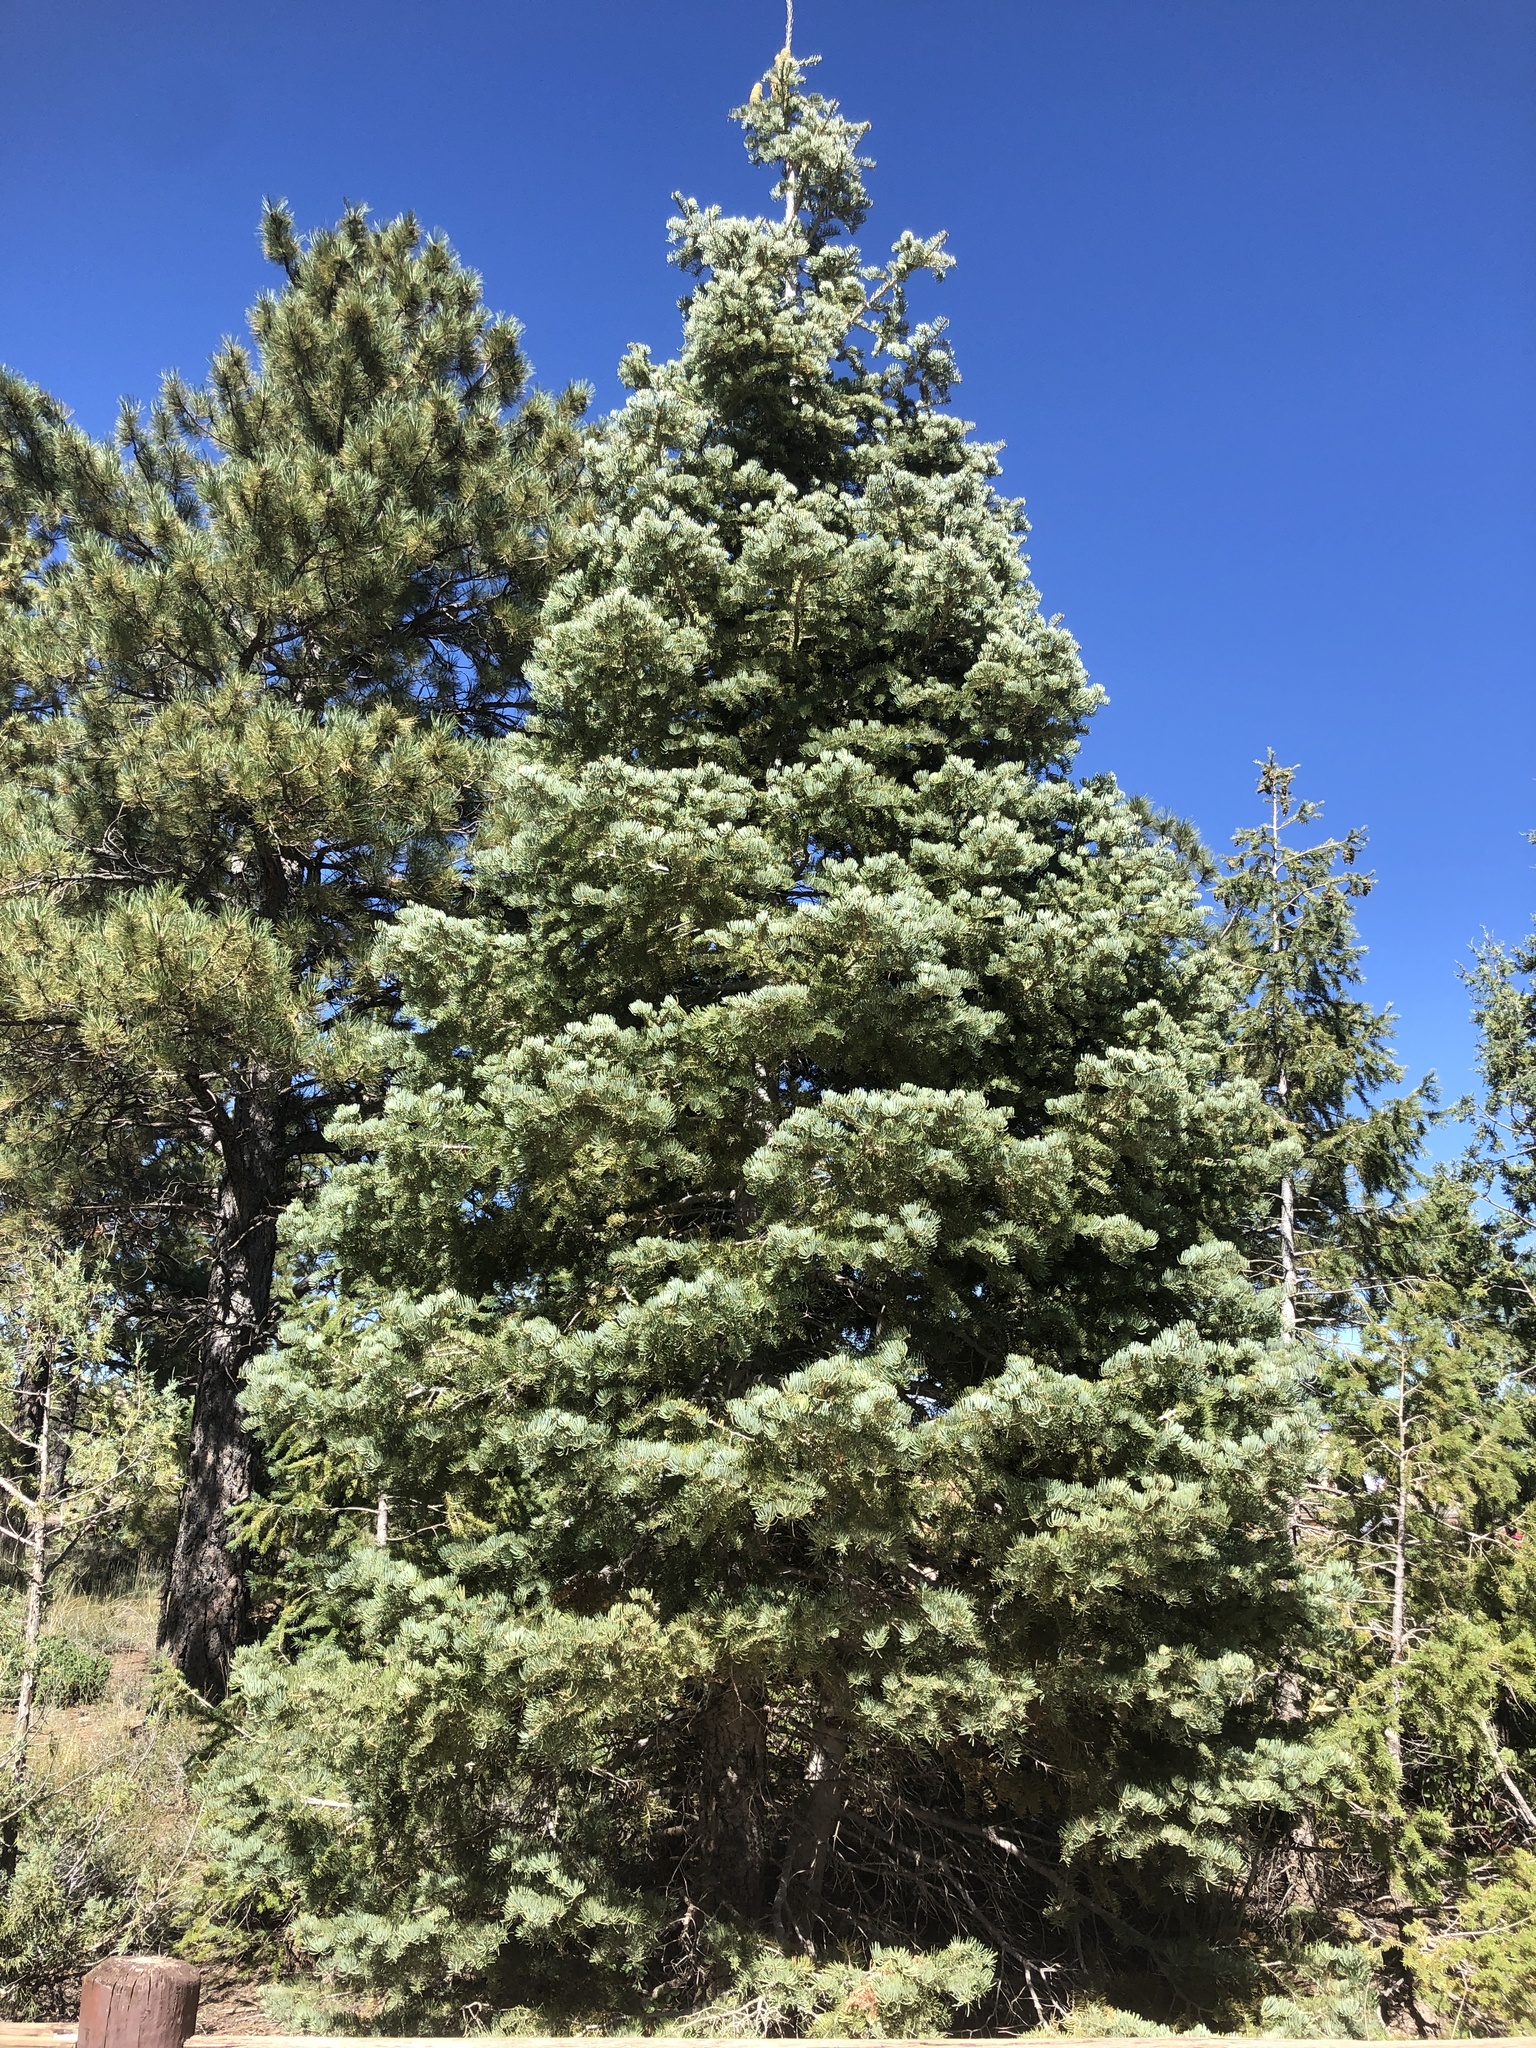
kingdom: Plantae
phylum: Tracheophyta
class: Pinopsida
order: Pinales
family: Pinaceae
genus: Abies
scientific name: Abies concolor
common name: Colorado fir
